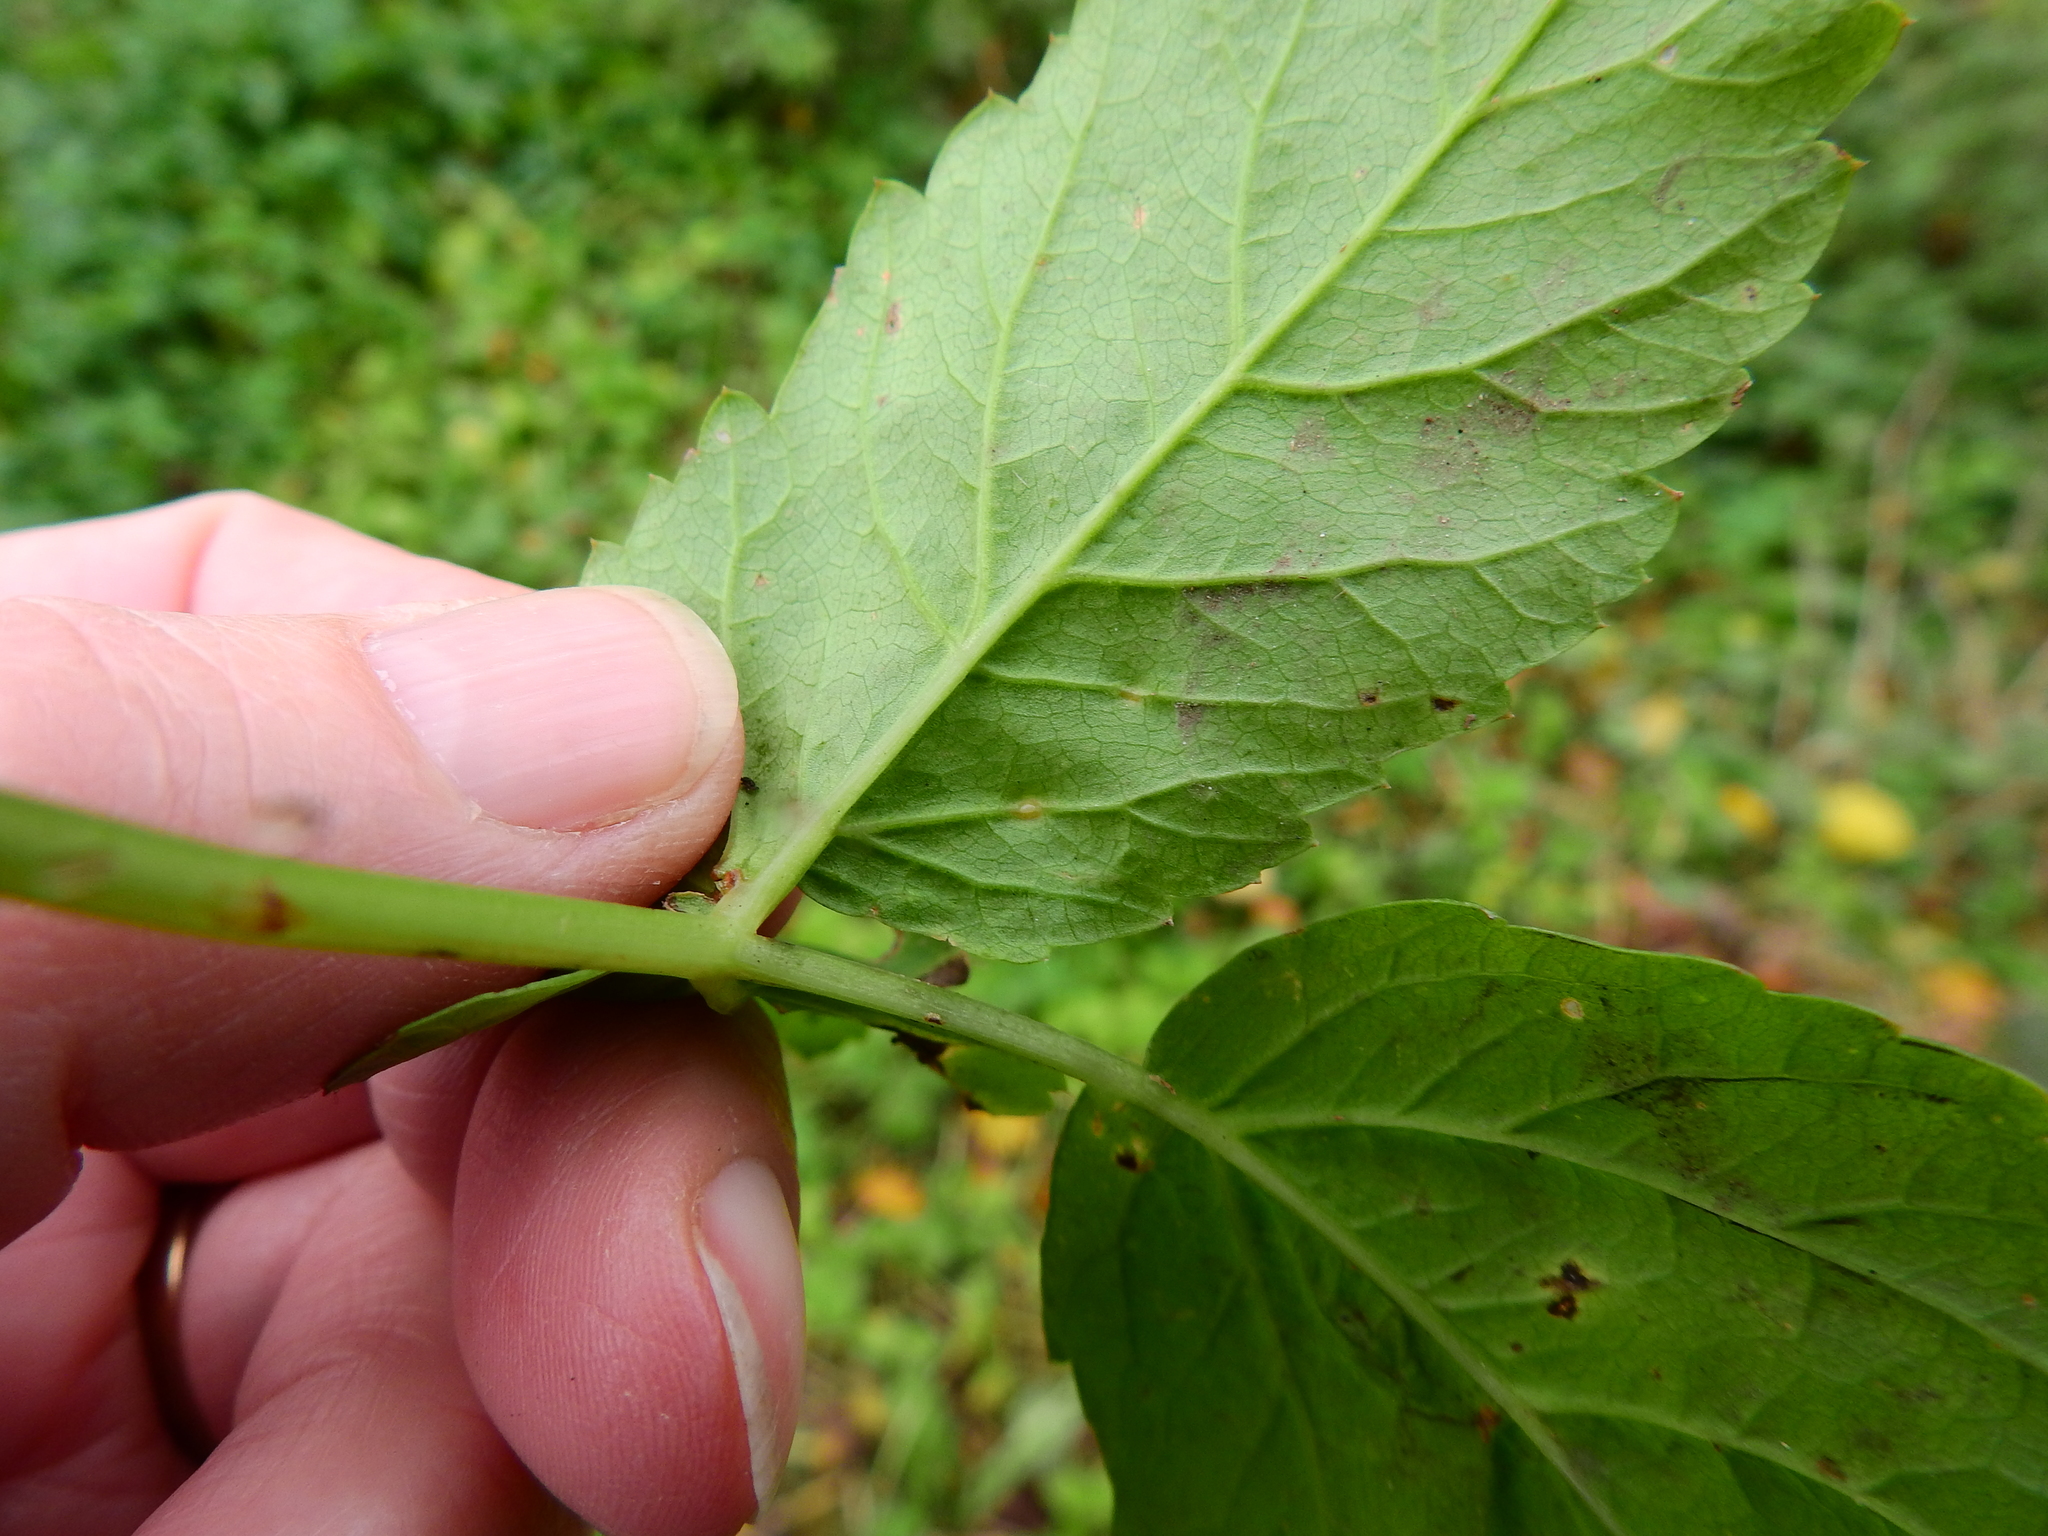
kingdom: Fungi
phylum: Ascomycota
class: Taphrinomycetes
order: Taphrinales
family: Taphrinaceae
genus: Protomyces
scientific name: Protomyces macrosporus
